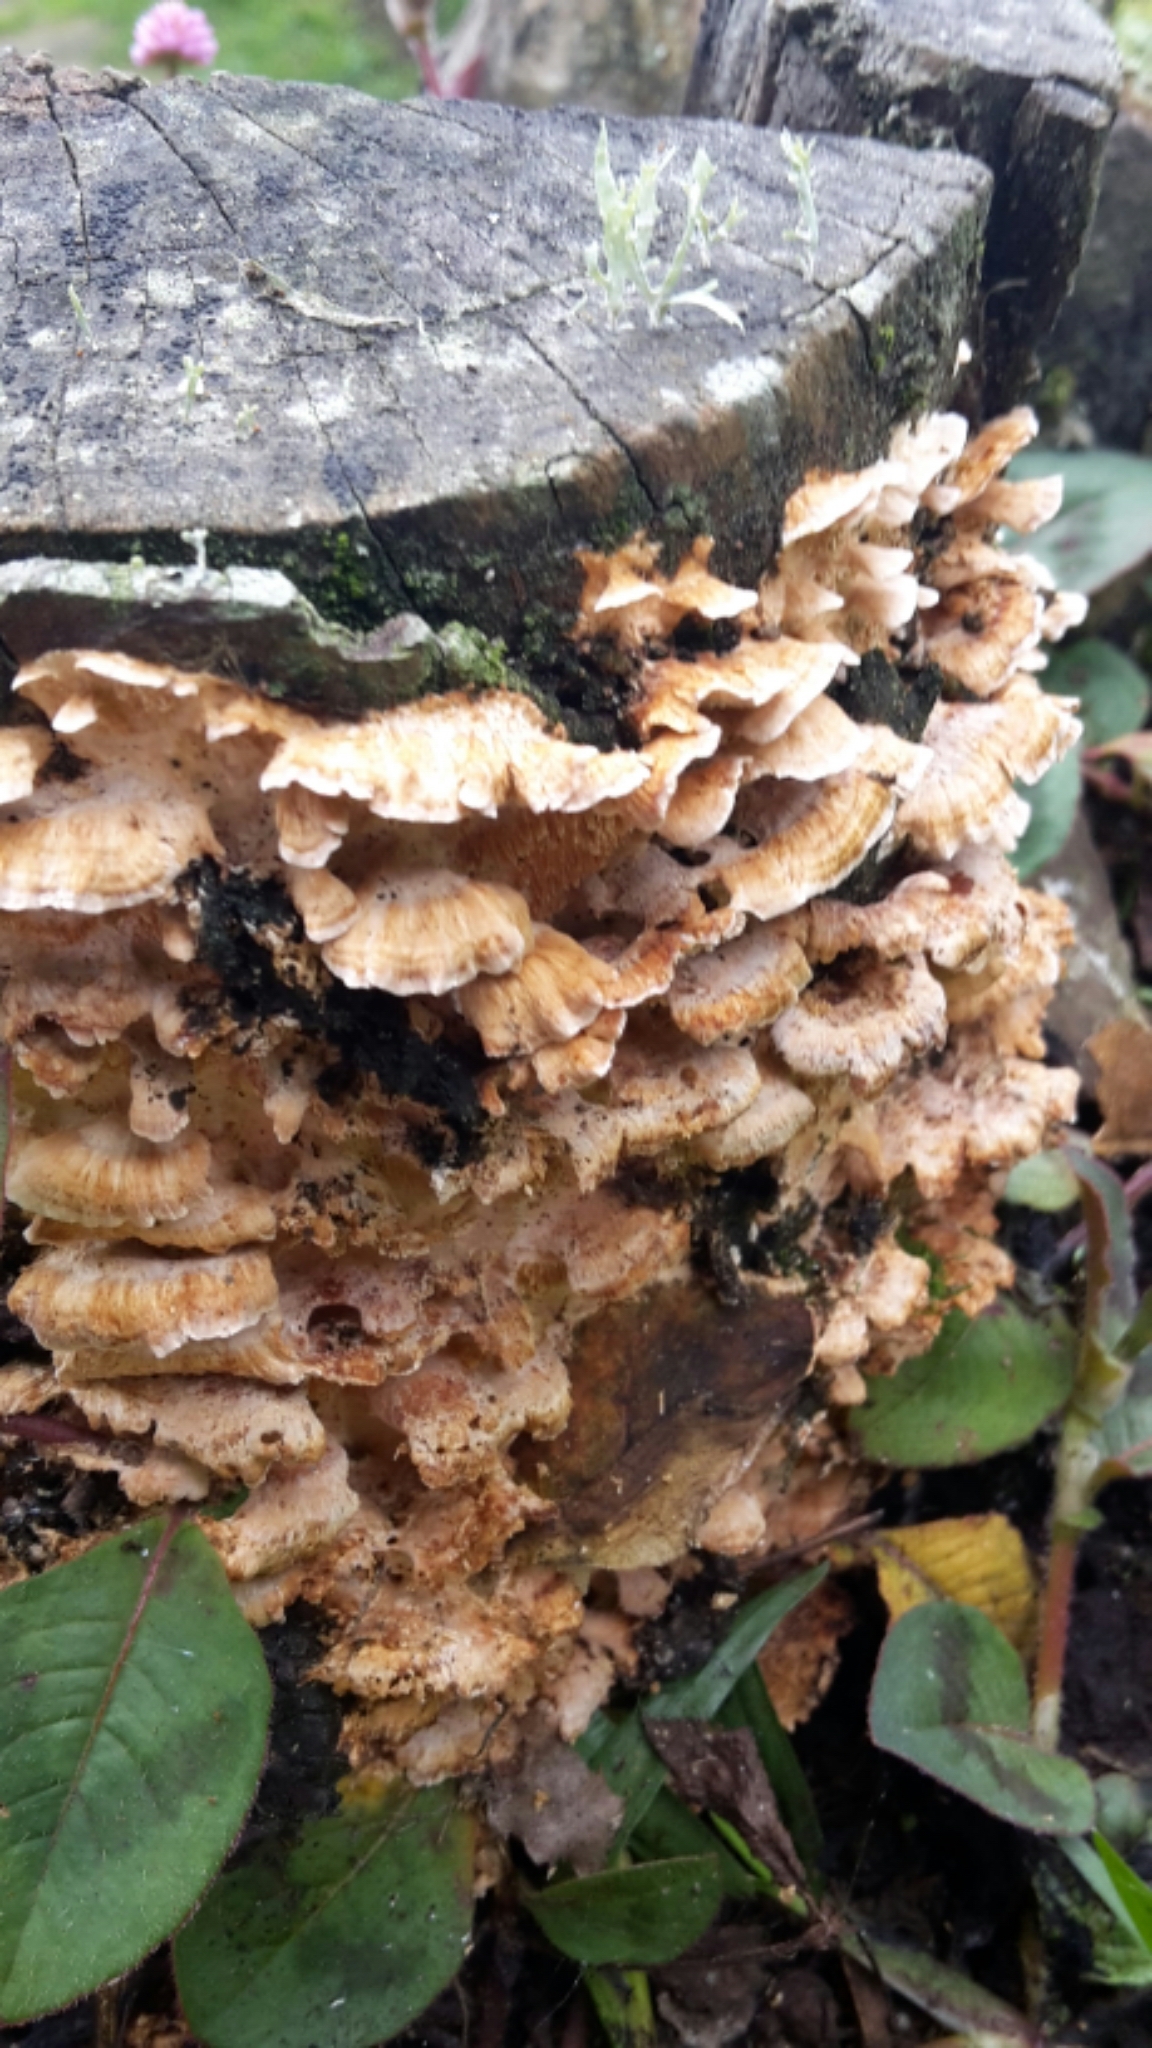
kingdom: Fungi
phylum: Basidiomycota
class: Agaricomycetes
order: Polyporales
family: Cerrenaceae
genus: Cerrena
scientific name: Cerrena zonata
